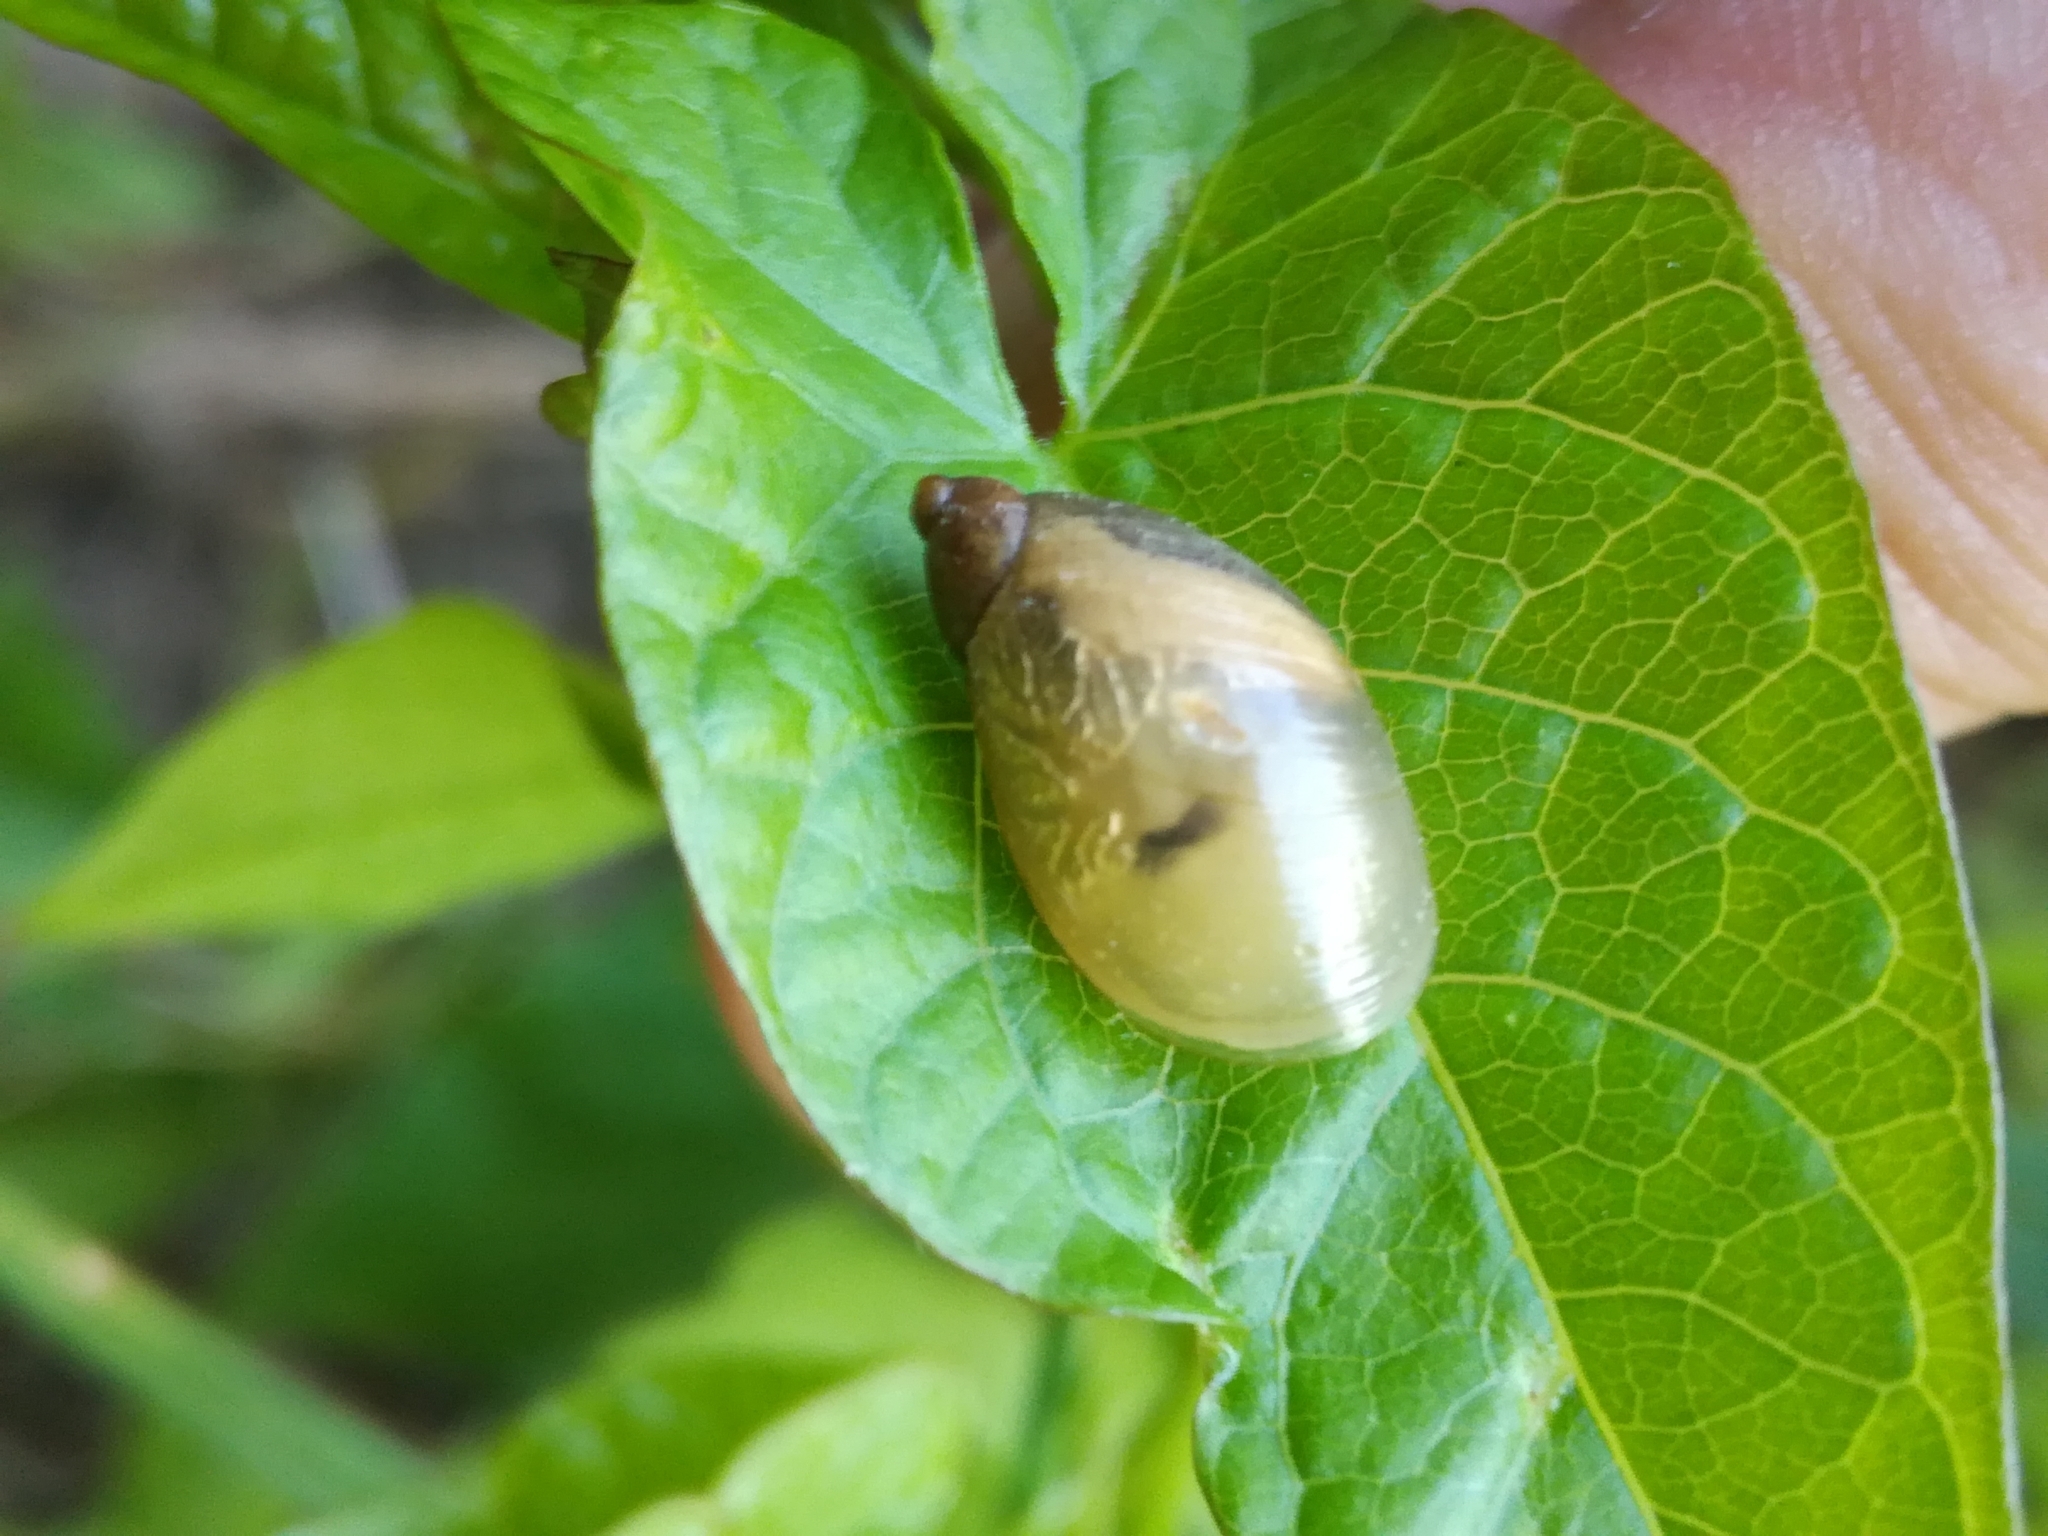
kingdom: Animalia
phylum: Mollusca
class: Gastropoda
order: Stylommatophora
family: Succineidae
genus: Succinea
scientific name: Succinea putris
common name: European ambersnail
